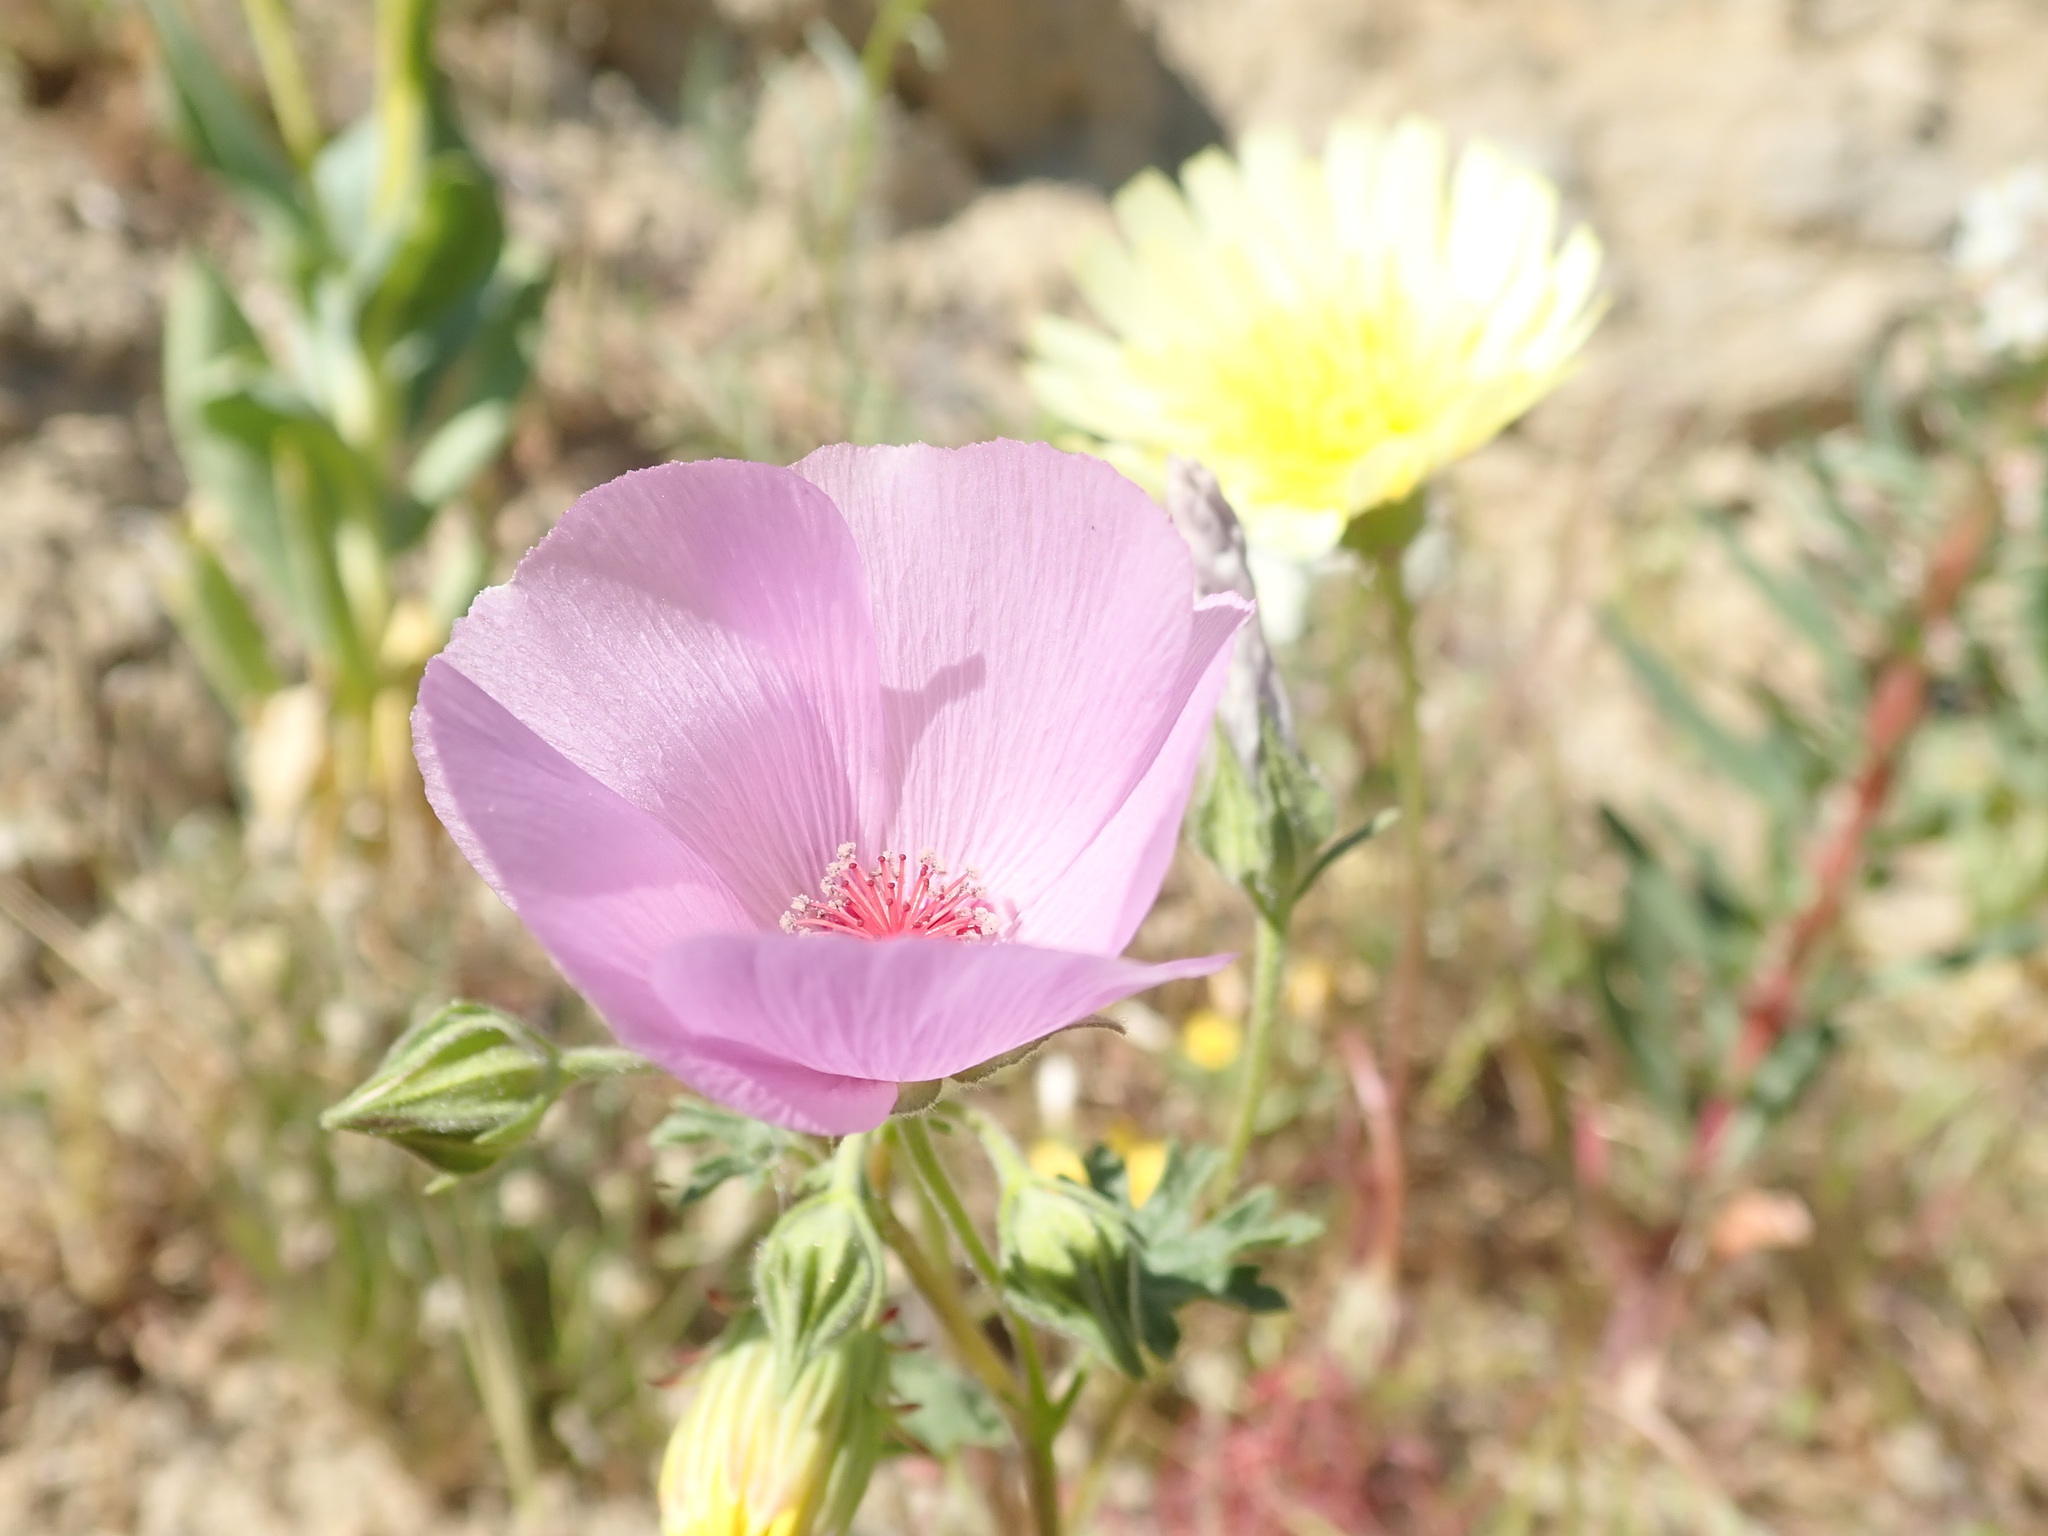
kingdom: Plantae
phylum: Tracheophyta
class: Magnoliopsida
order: Malvales
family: Malvaceae
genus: Eremalche
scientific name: Eremalche parryi
